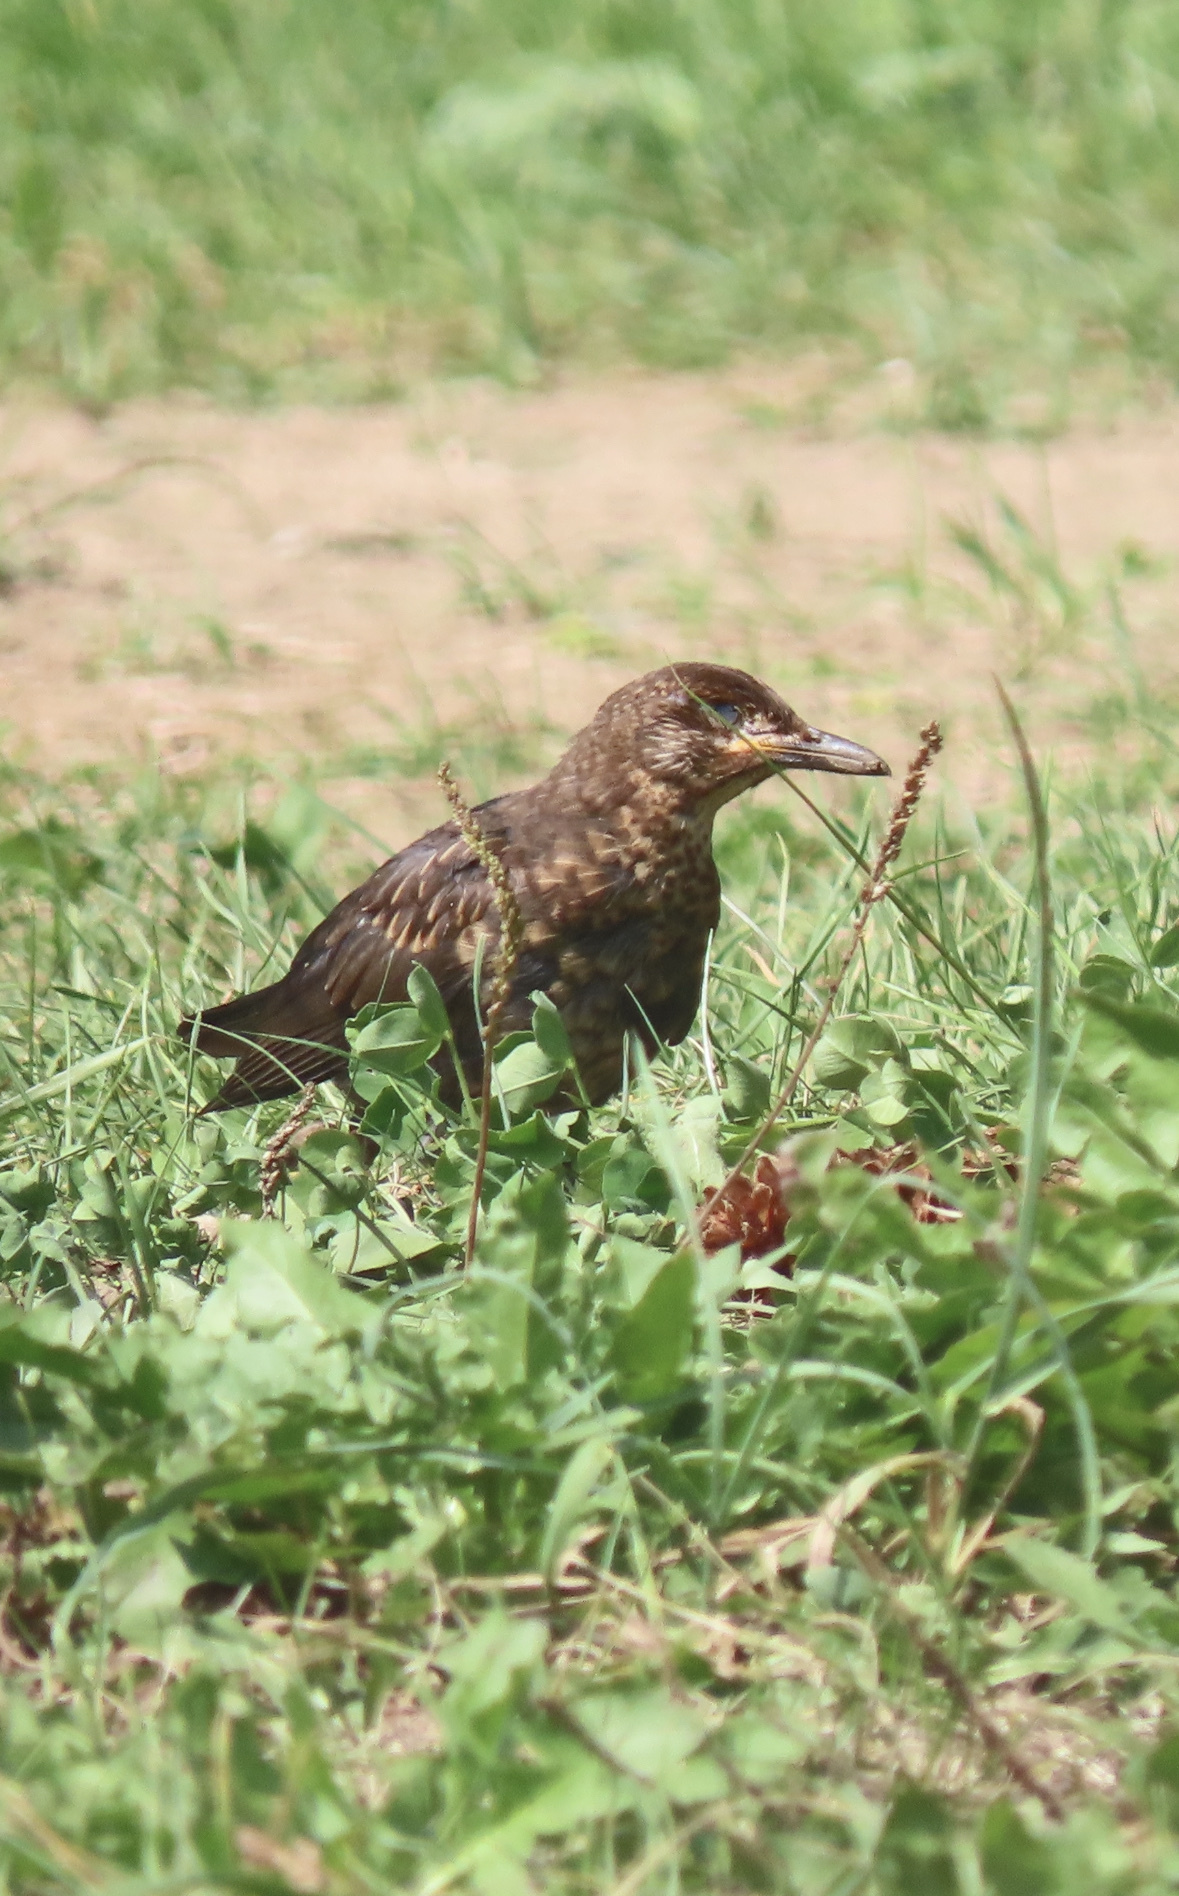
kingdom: Animalia
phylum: Chordata
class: Aves
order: Passeriformes
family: Turdidae
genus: Turdus
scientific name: Turdus merula
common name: Common blackbird
